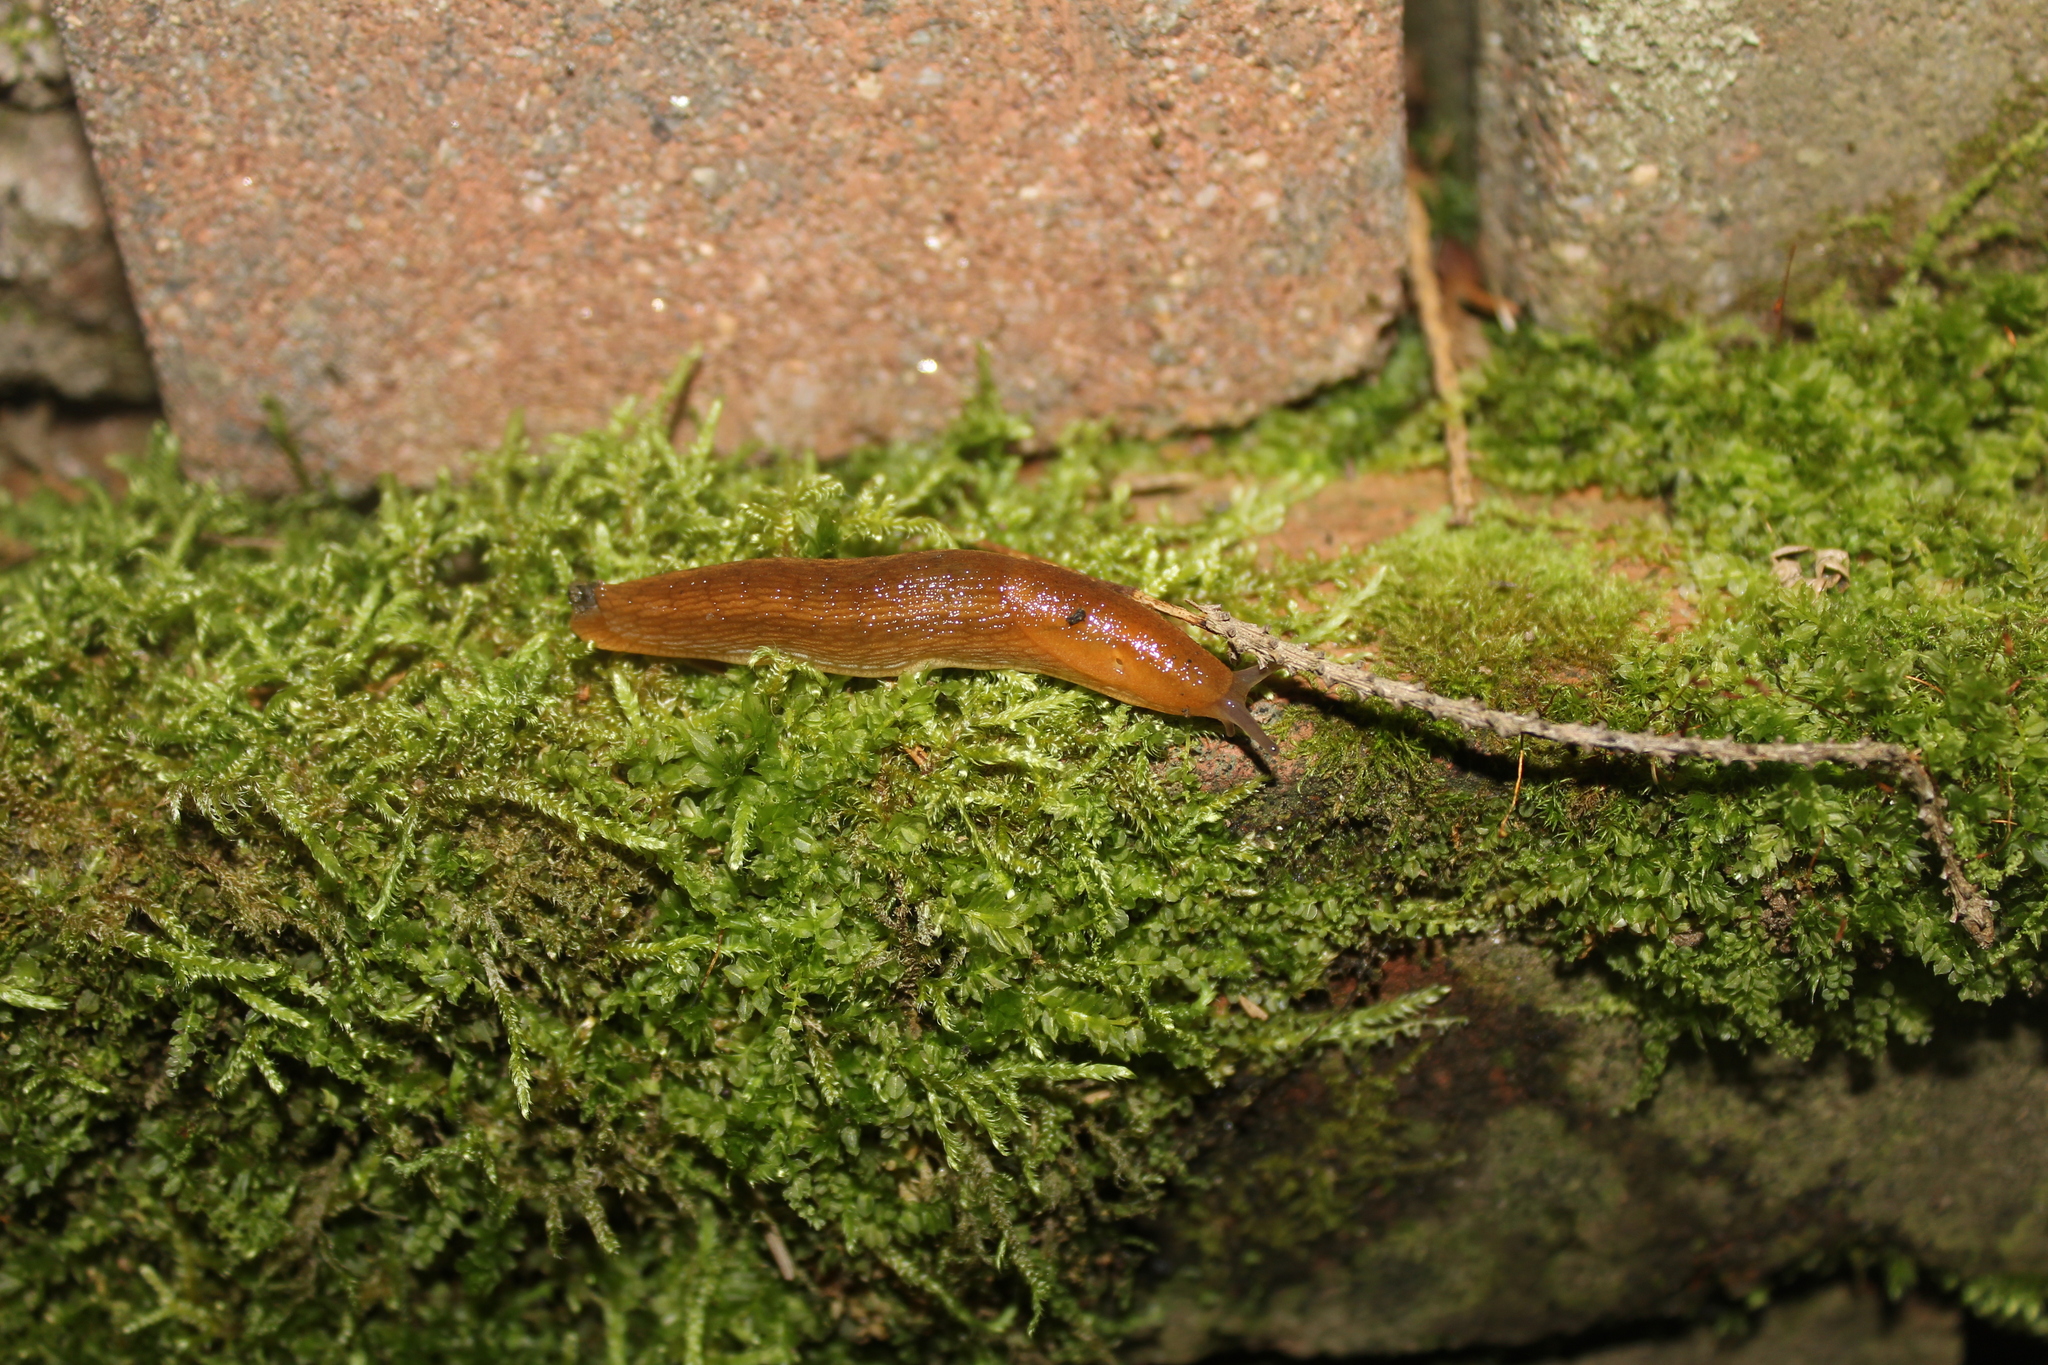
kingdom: Animalia
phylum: Mollusca
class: Gastropoda
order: Stylommatophora
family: Arionidae
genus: Arion
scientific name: Arion subfuscus
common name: Dusky arion
